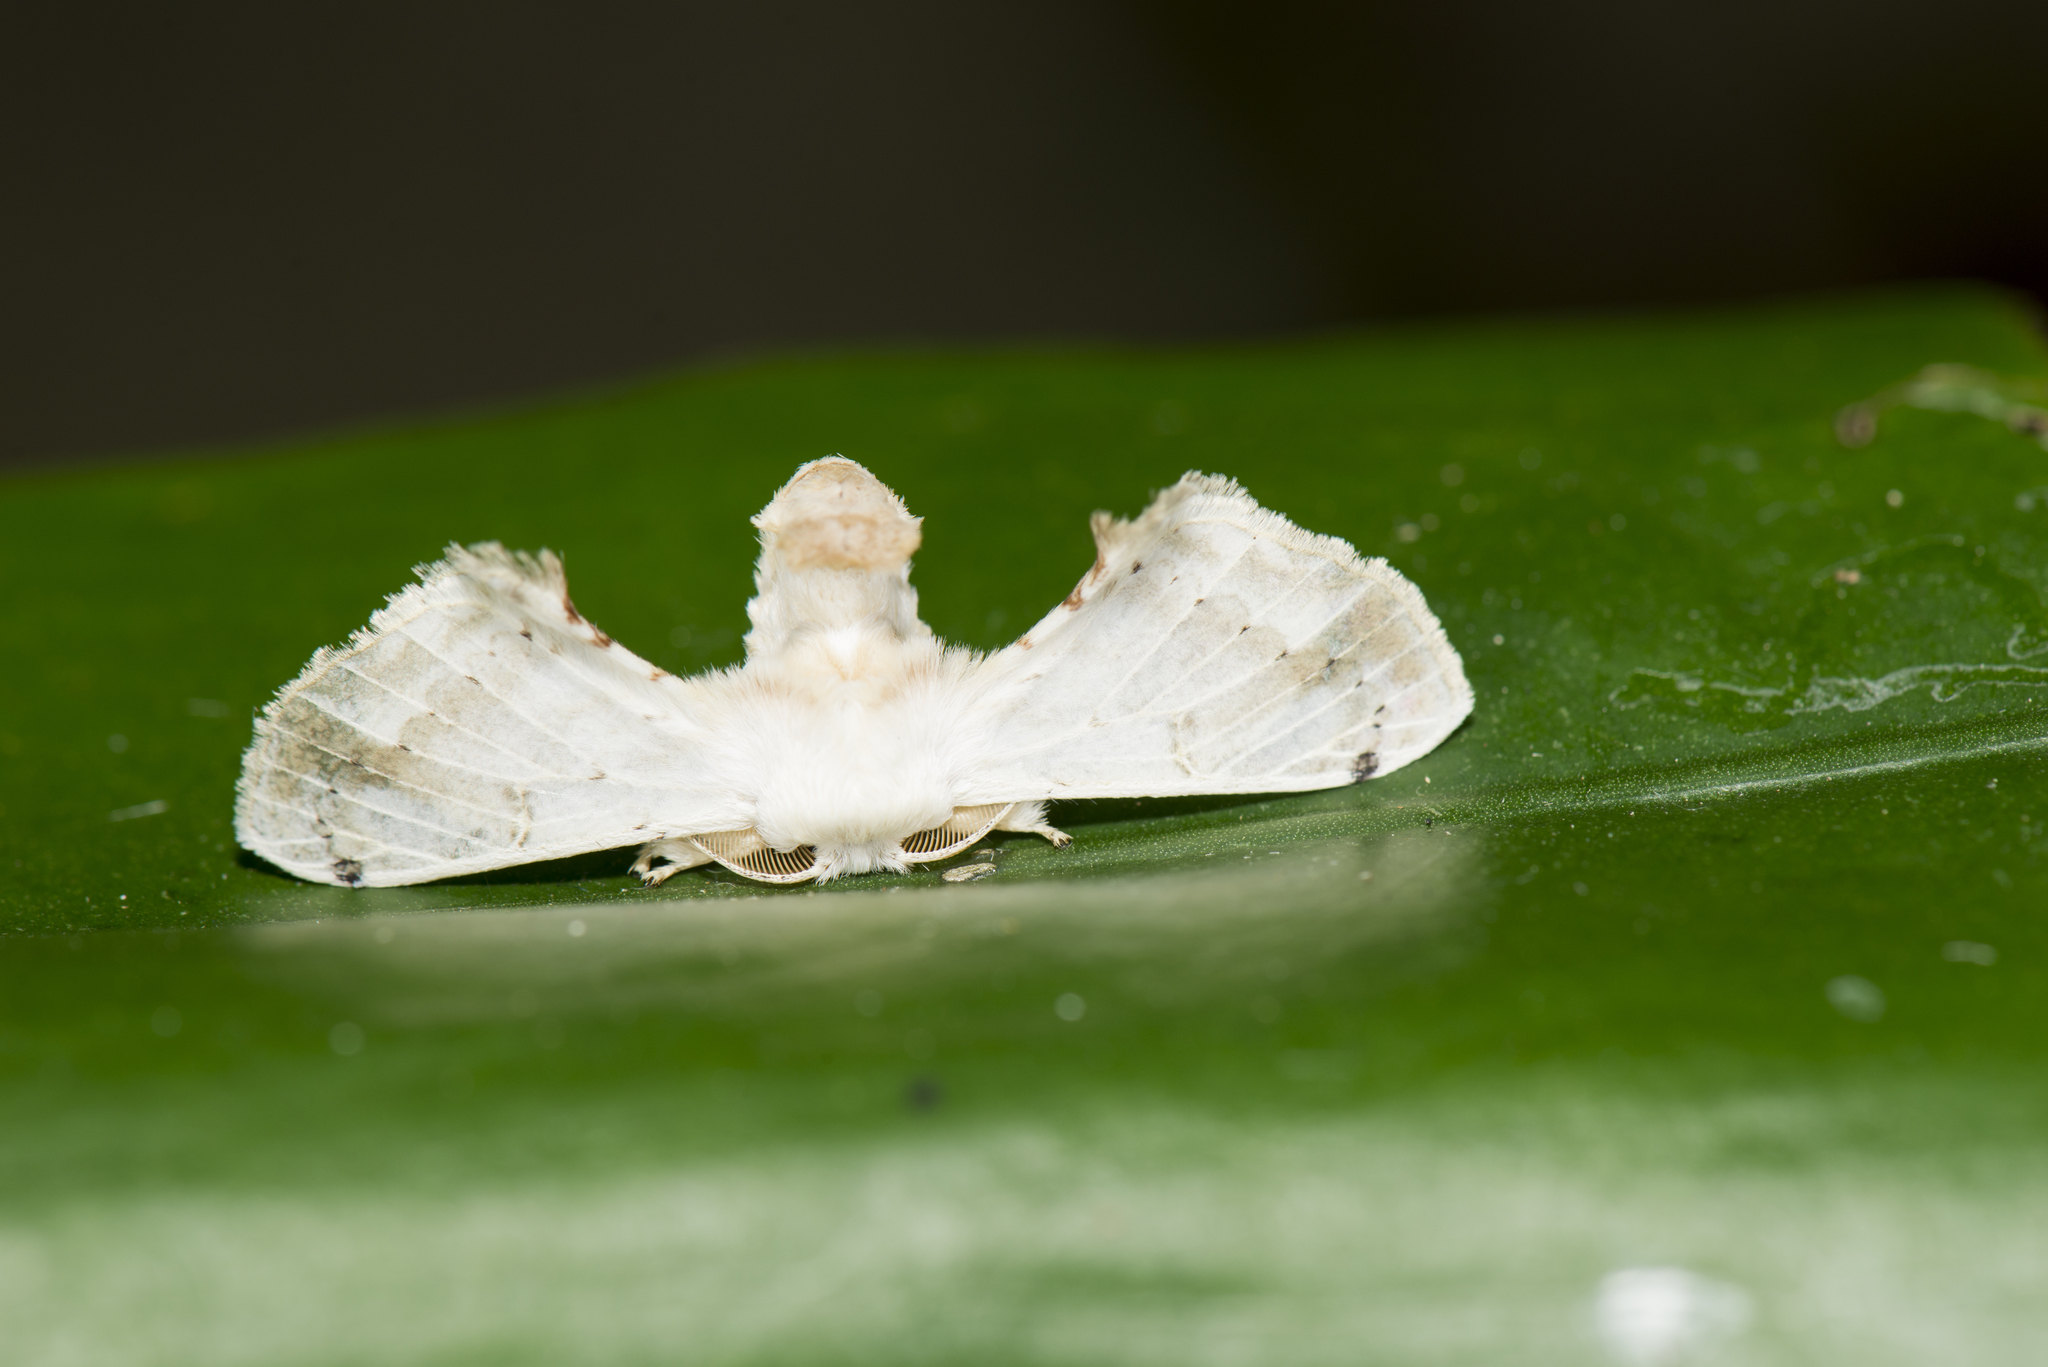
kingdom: Animalia
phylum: Arthropoda
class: Insecta
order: Lepidoptera
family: Bombycidae
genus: Ernolatia
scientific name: Ernolatia moorei
